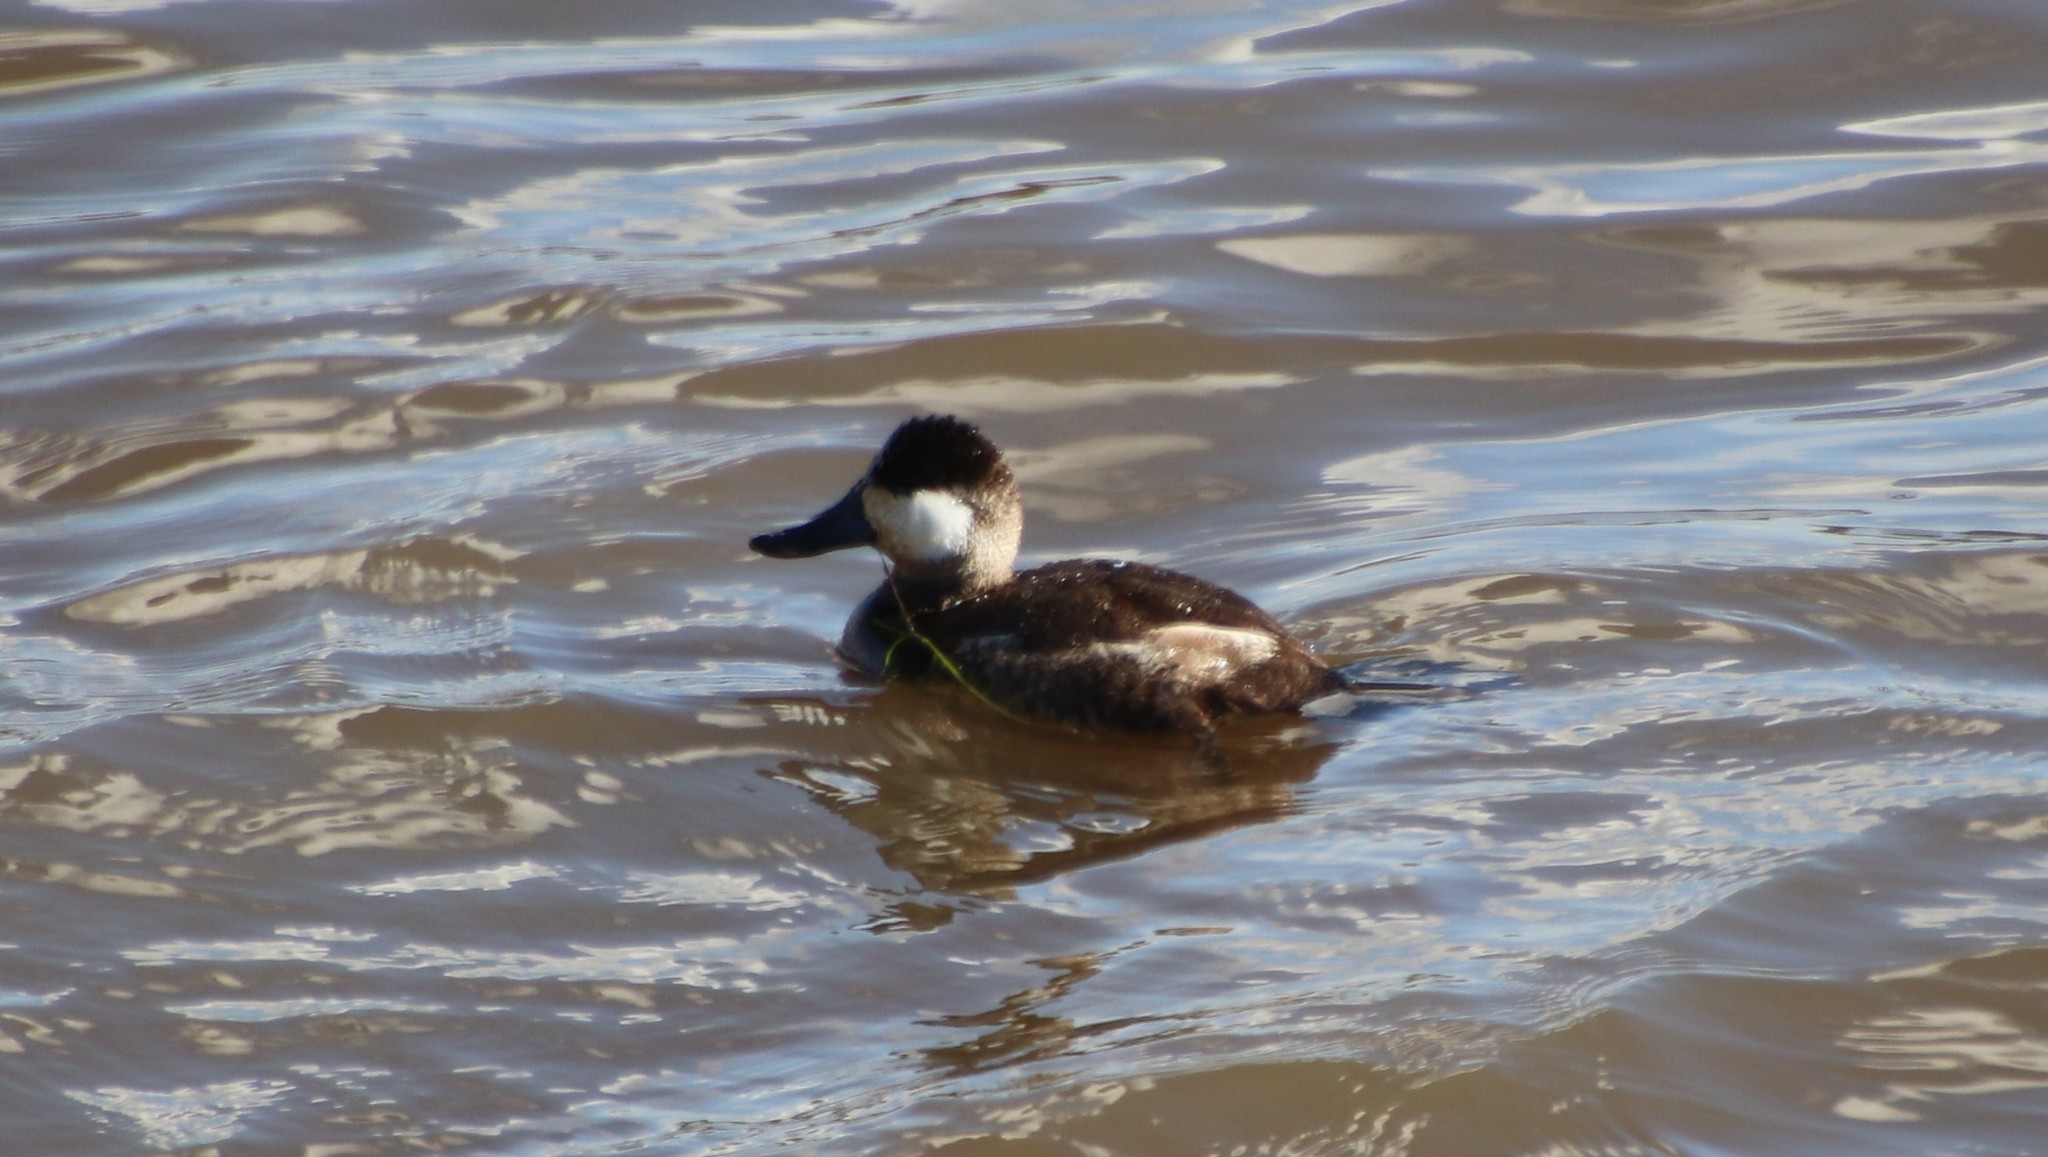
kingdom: Animalia
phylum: Chordata
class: Aves
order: Anseriformes
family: Anatidae
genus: Oxyura
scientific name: Oxyura jamaicensis
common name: Ruddy duck
